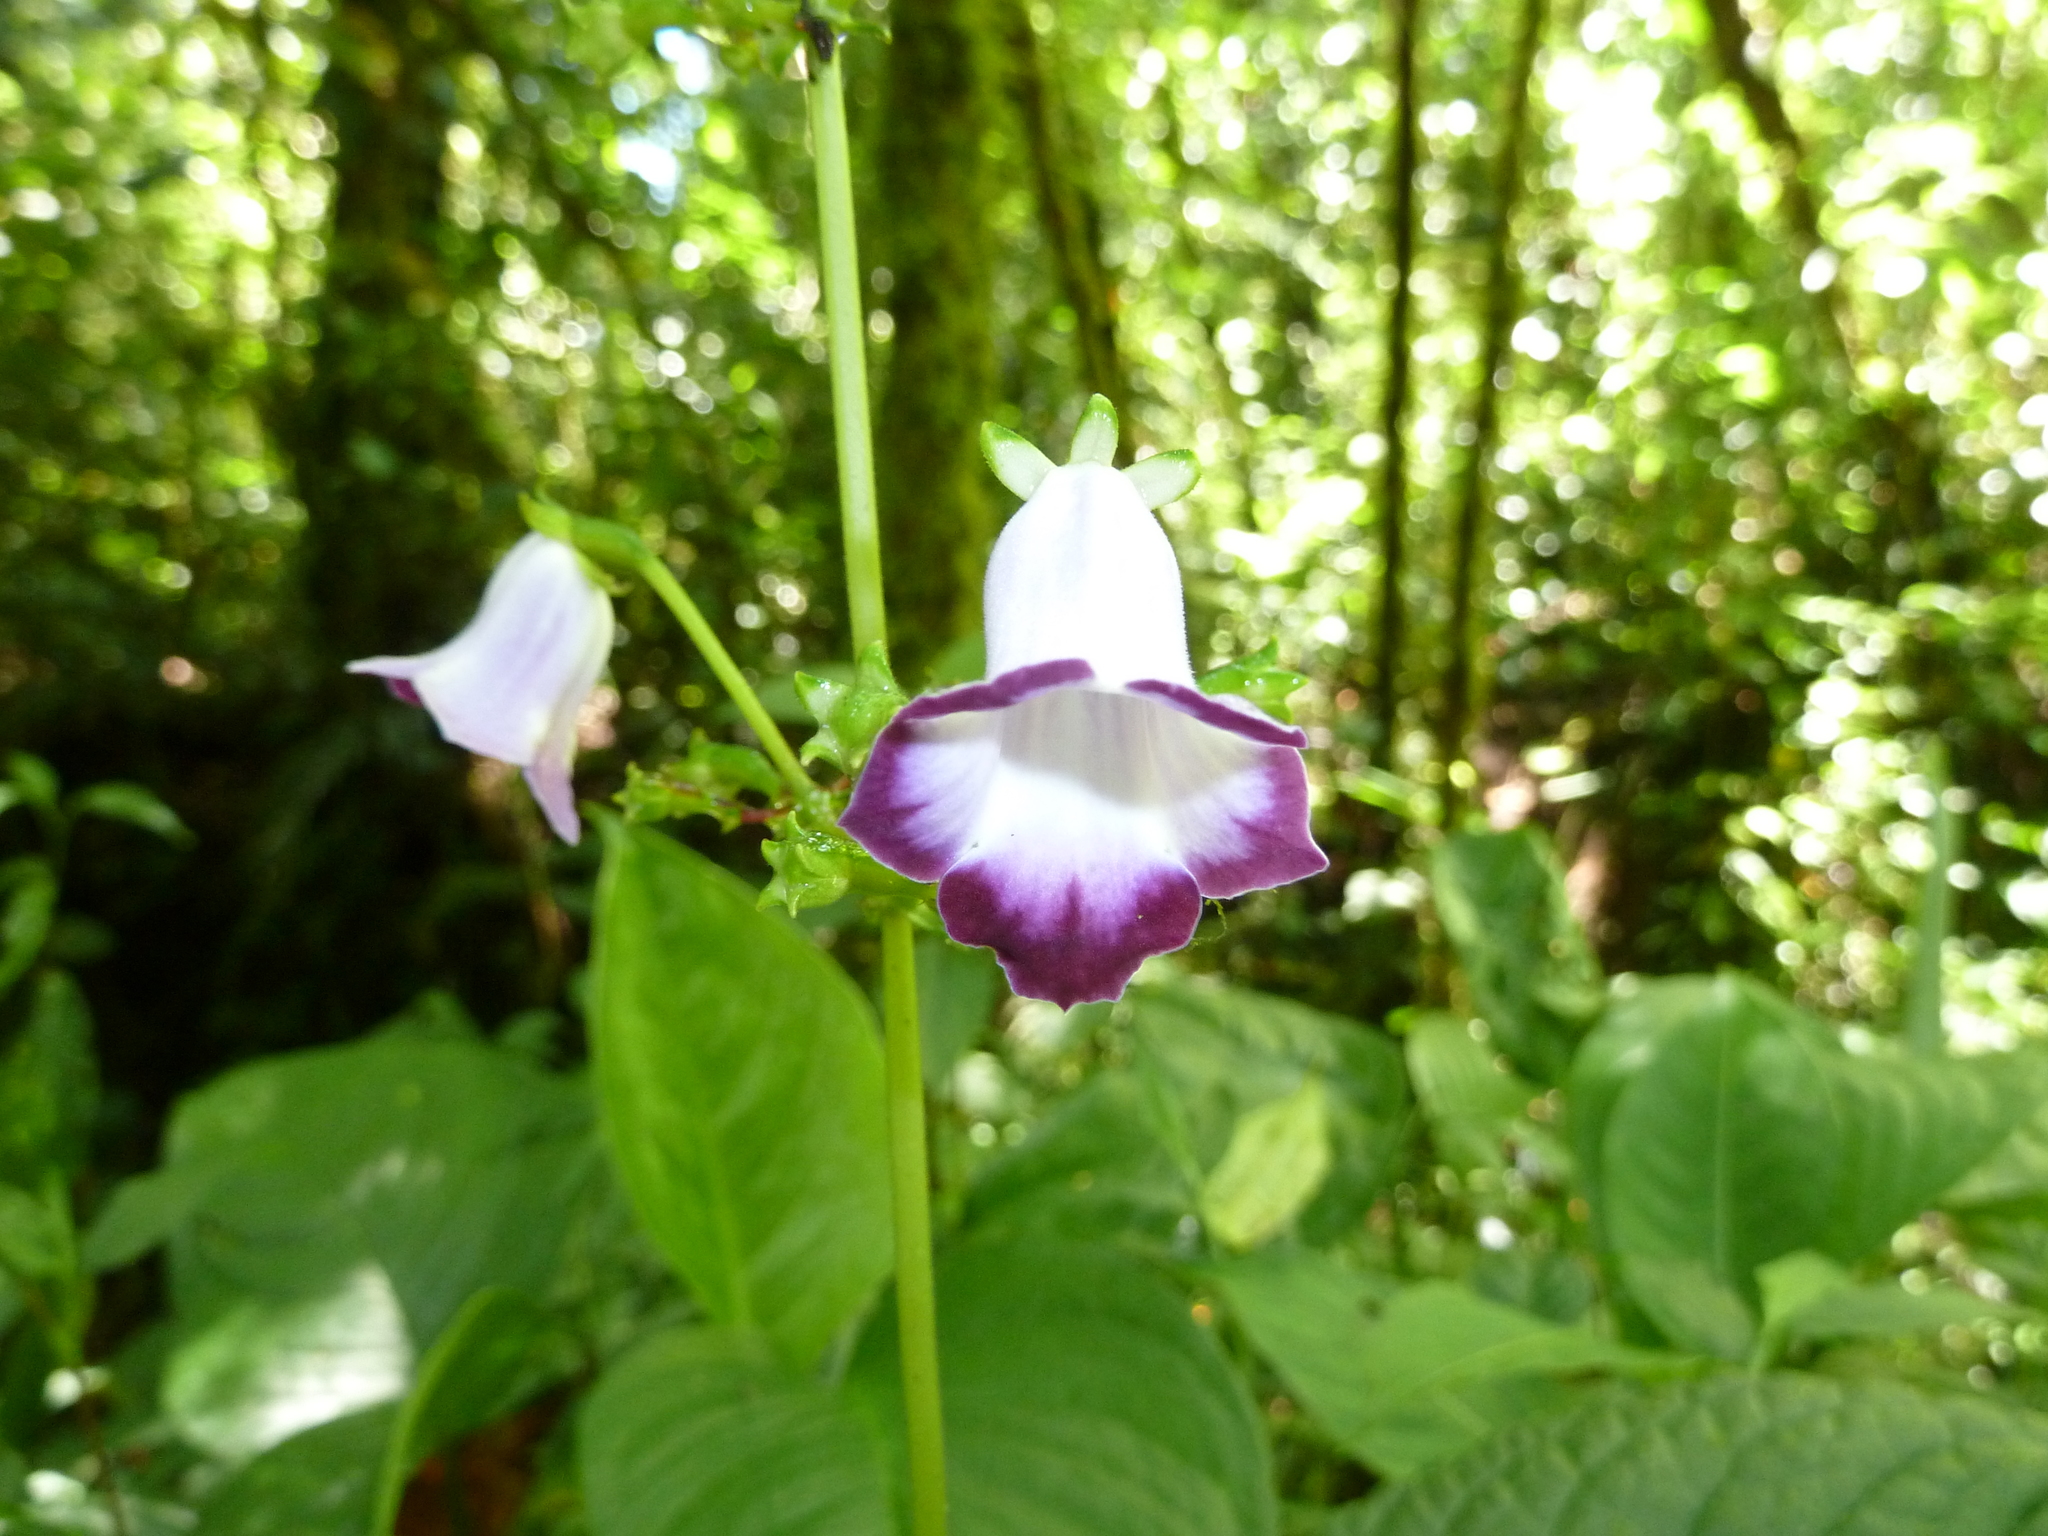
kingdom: Plantae
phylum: Tracheophyta
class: Magnoliopsida
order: Lamiales
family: Gesneriaceae
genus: Monopyle
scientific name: Monopyle maxonii
